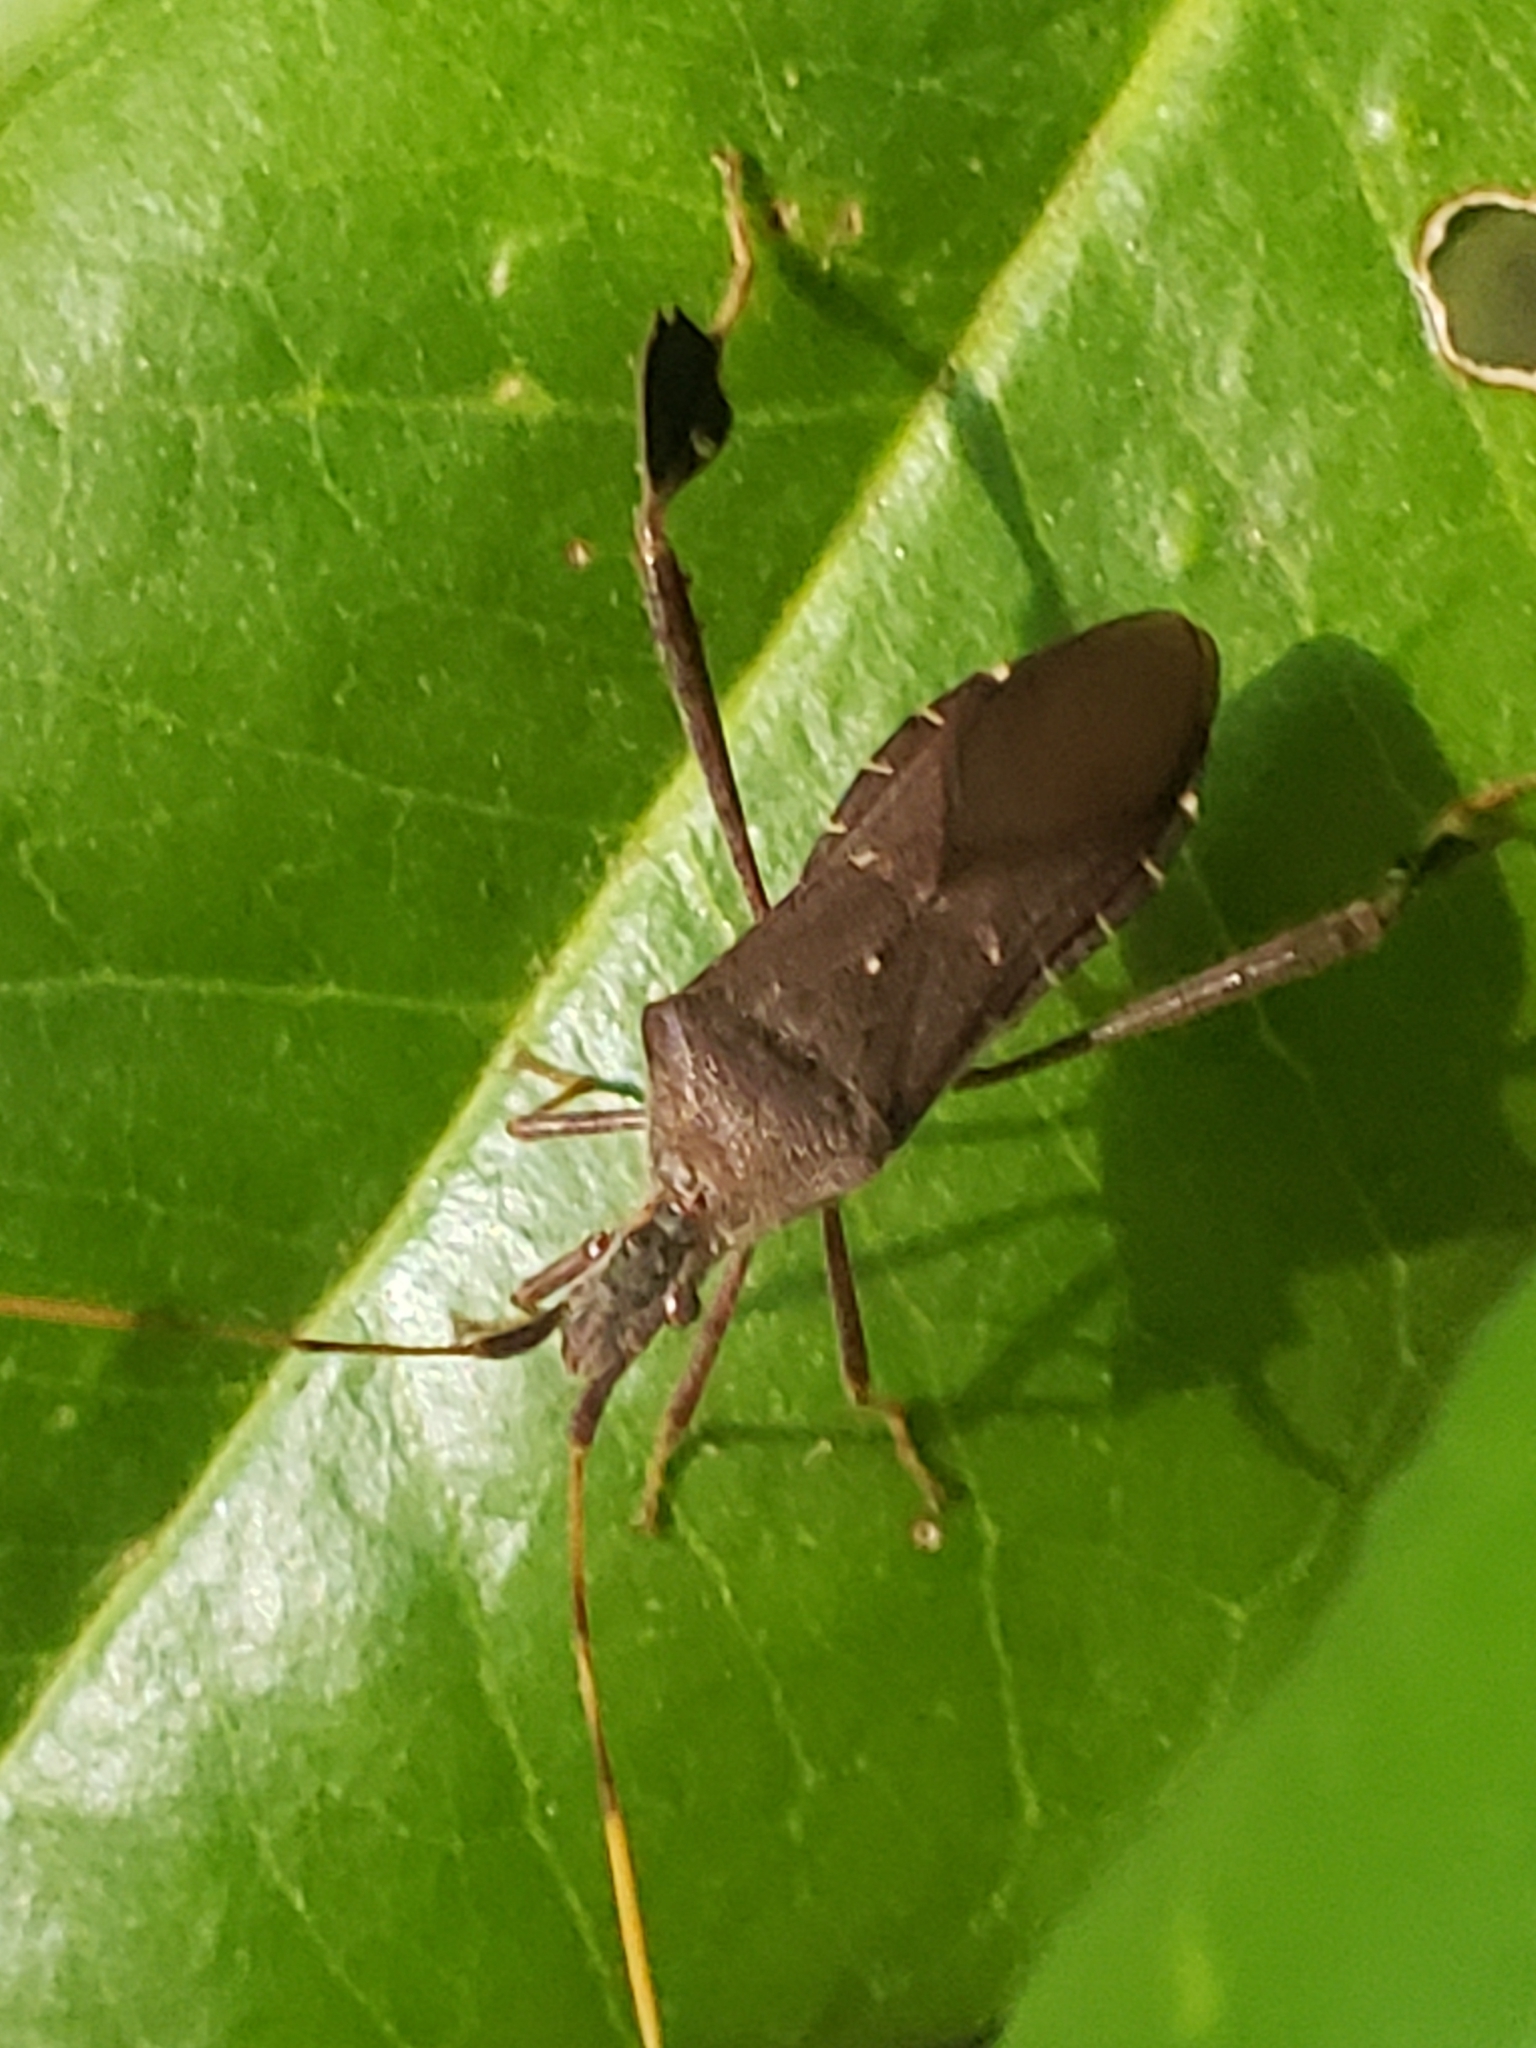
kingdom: Animalia
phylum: Arthropoda
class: Insecta
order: Hemiptera
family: Coreidae
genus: Leptoglossus
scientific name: Leptoglossus oppositus
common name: Northern leaf-footed bug
